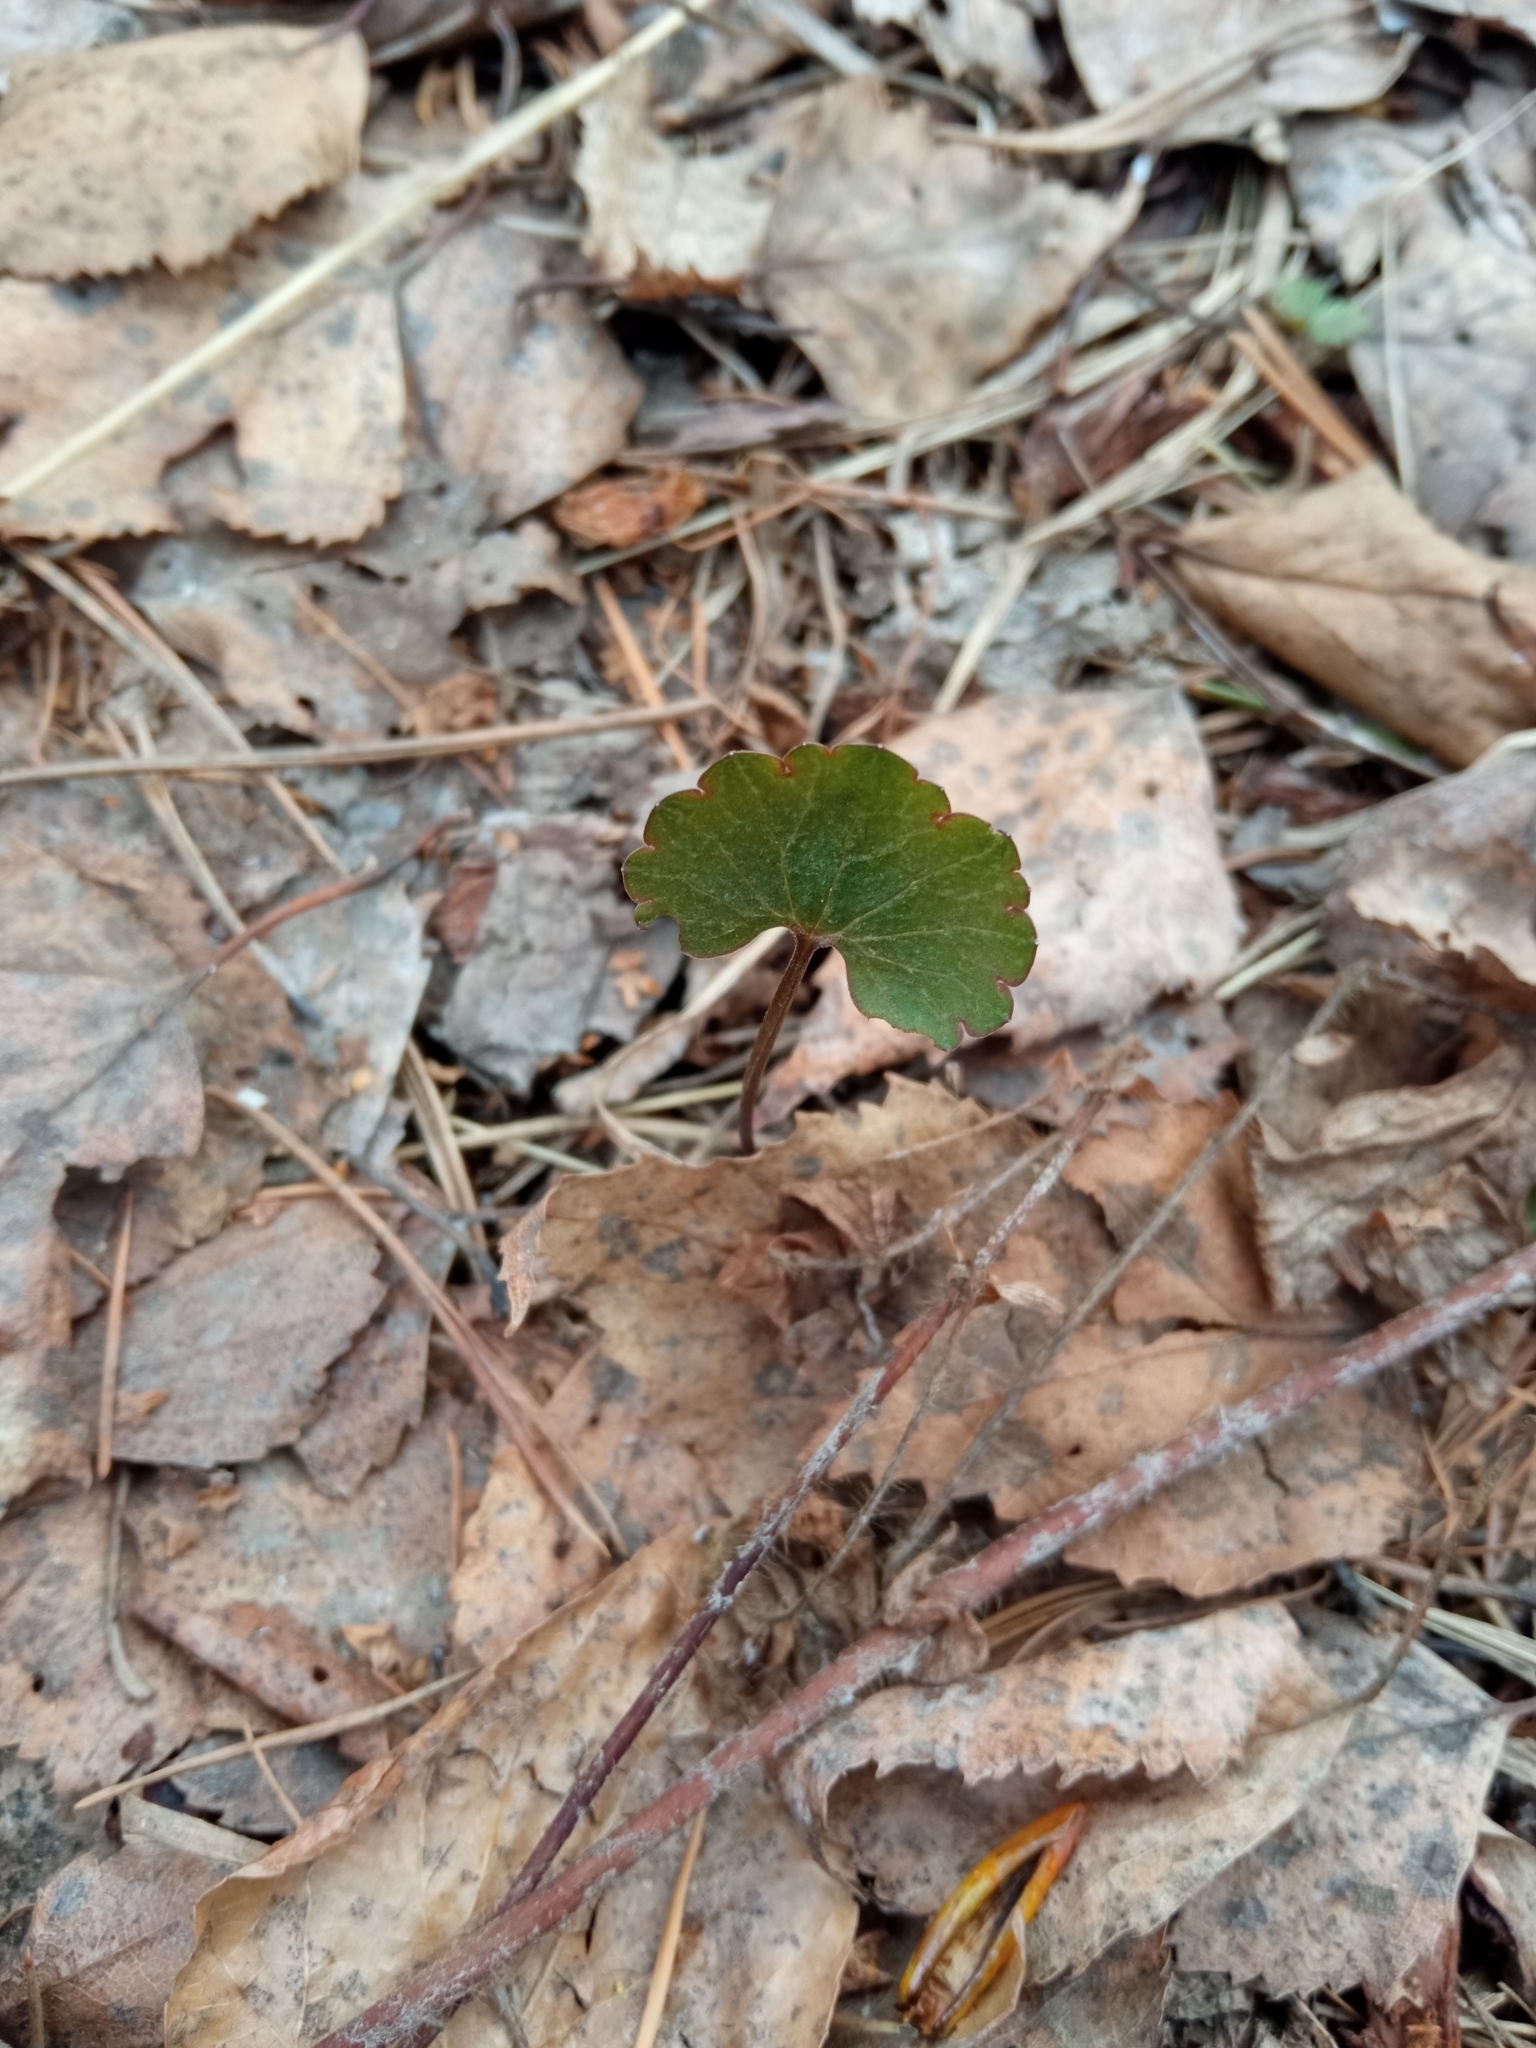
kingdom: Plantae
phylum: Tracheophyta
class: Magnoliopsida
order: Ranunculales
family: Ranunculaceae
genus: Ranunculus
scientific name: Ranunculus auricomus
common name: Goldilocks buttercup
